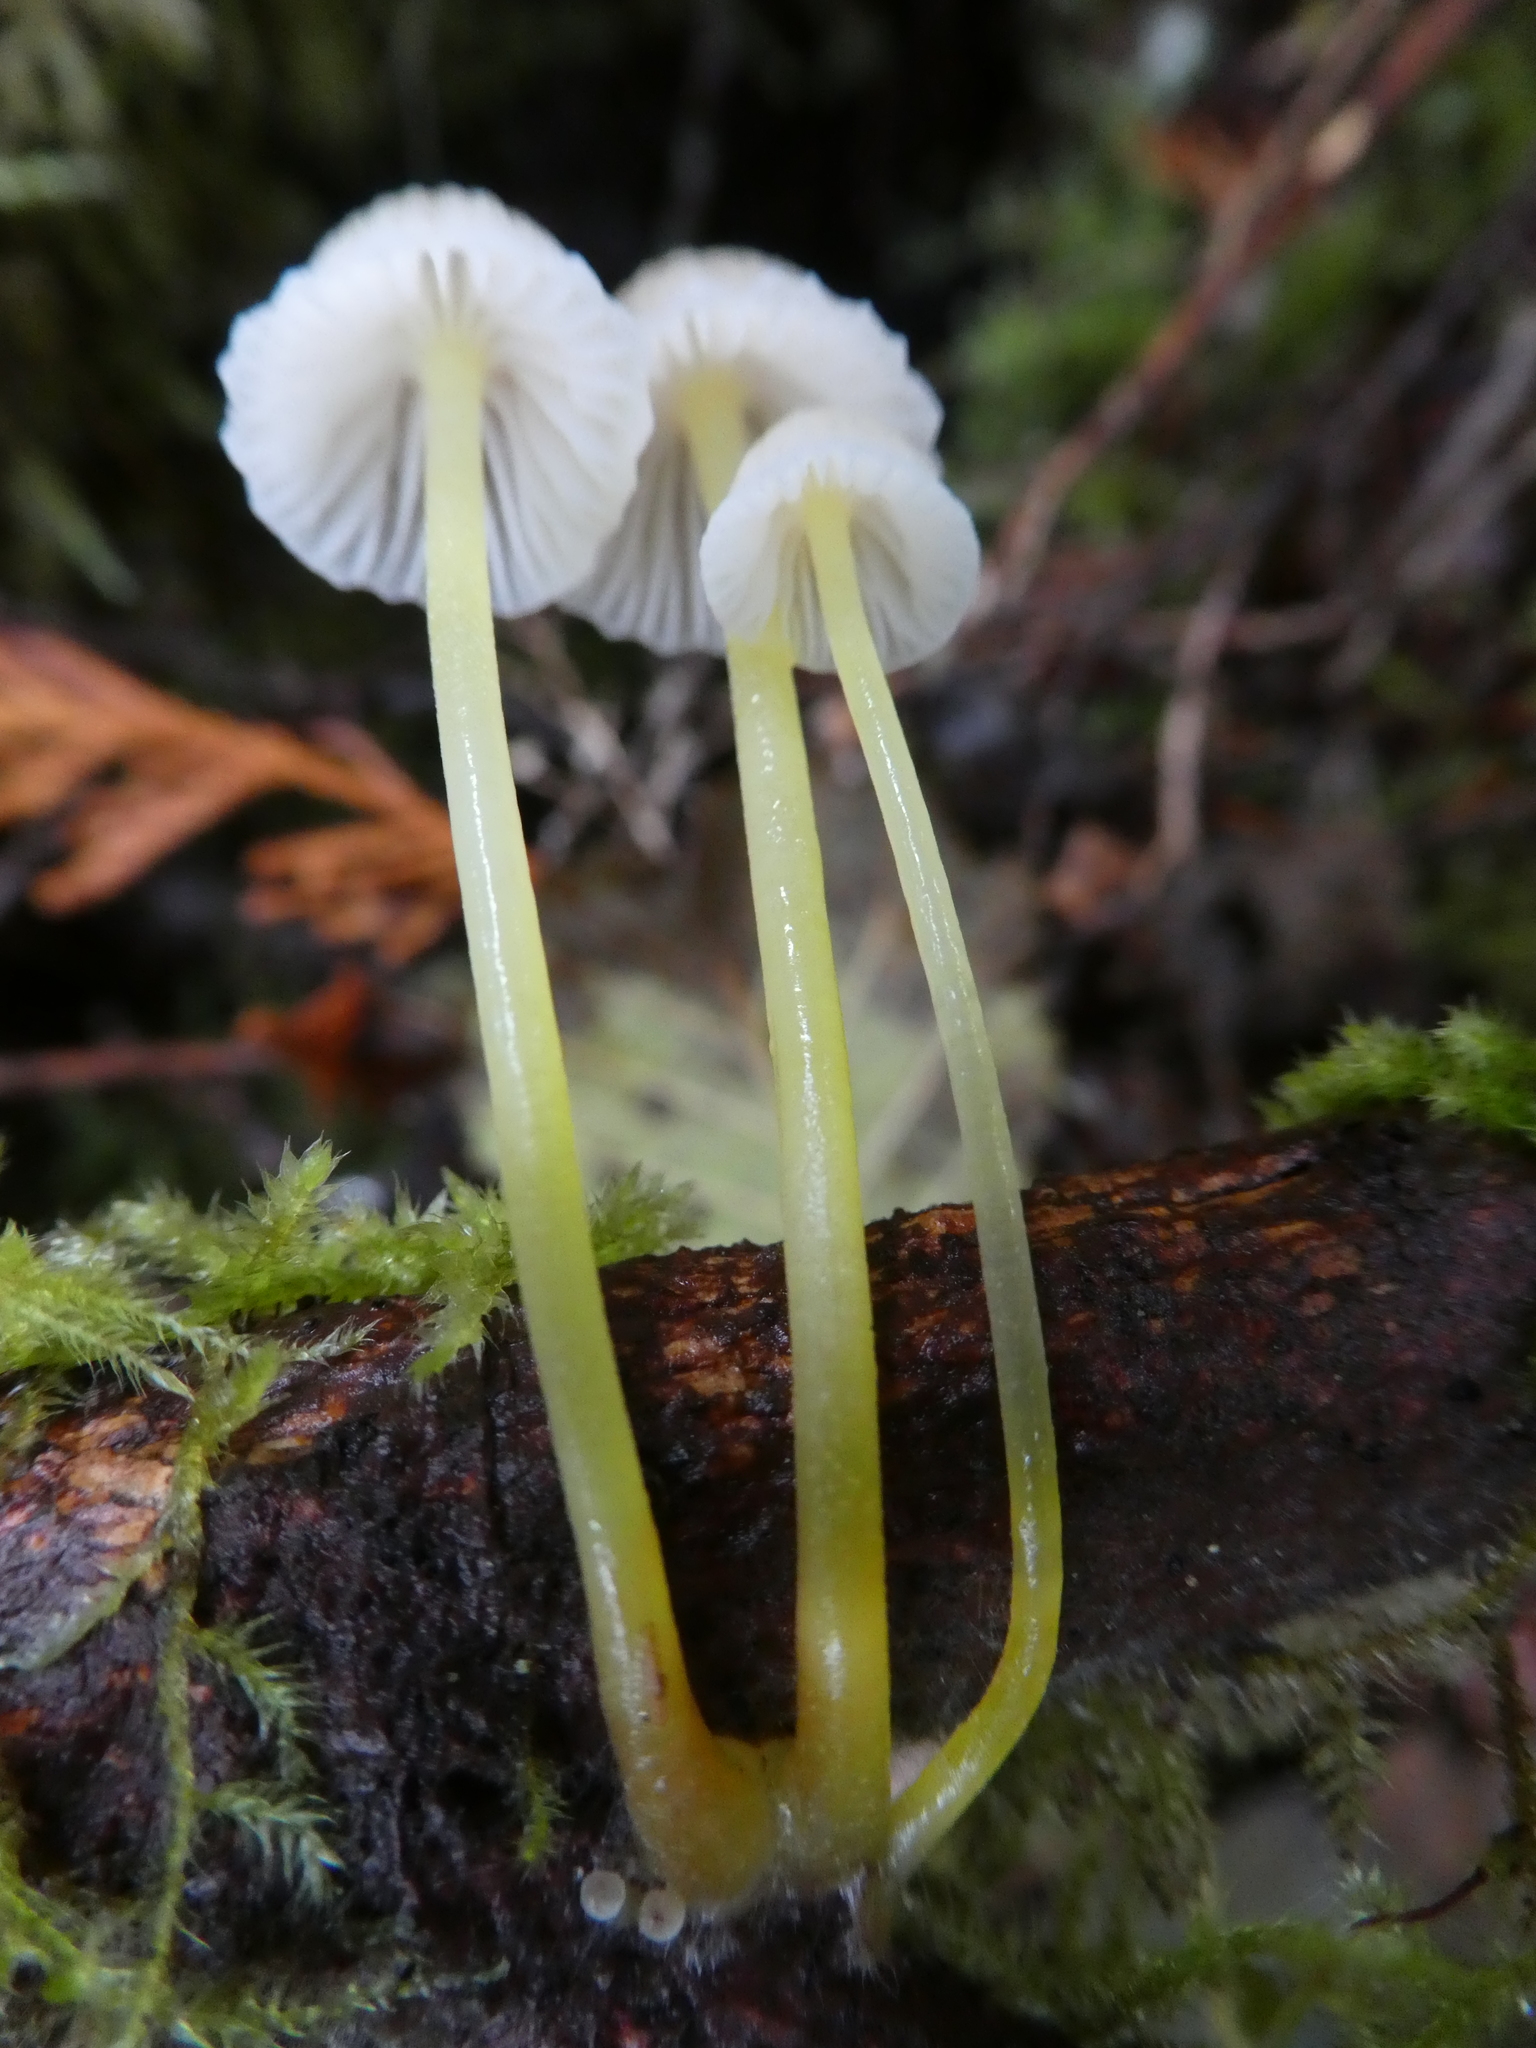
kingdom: Fungi
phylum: Basidiomycota
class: Agaricomycetes
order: Agaricales
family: Mycenaceae
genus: Mycena
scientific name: Mycena epipterygia
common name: Yellowleg bonnet
